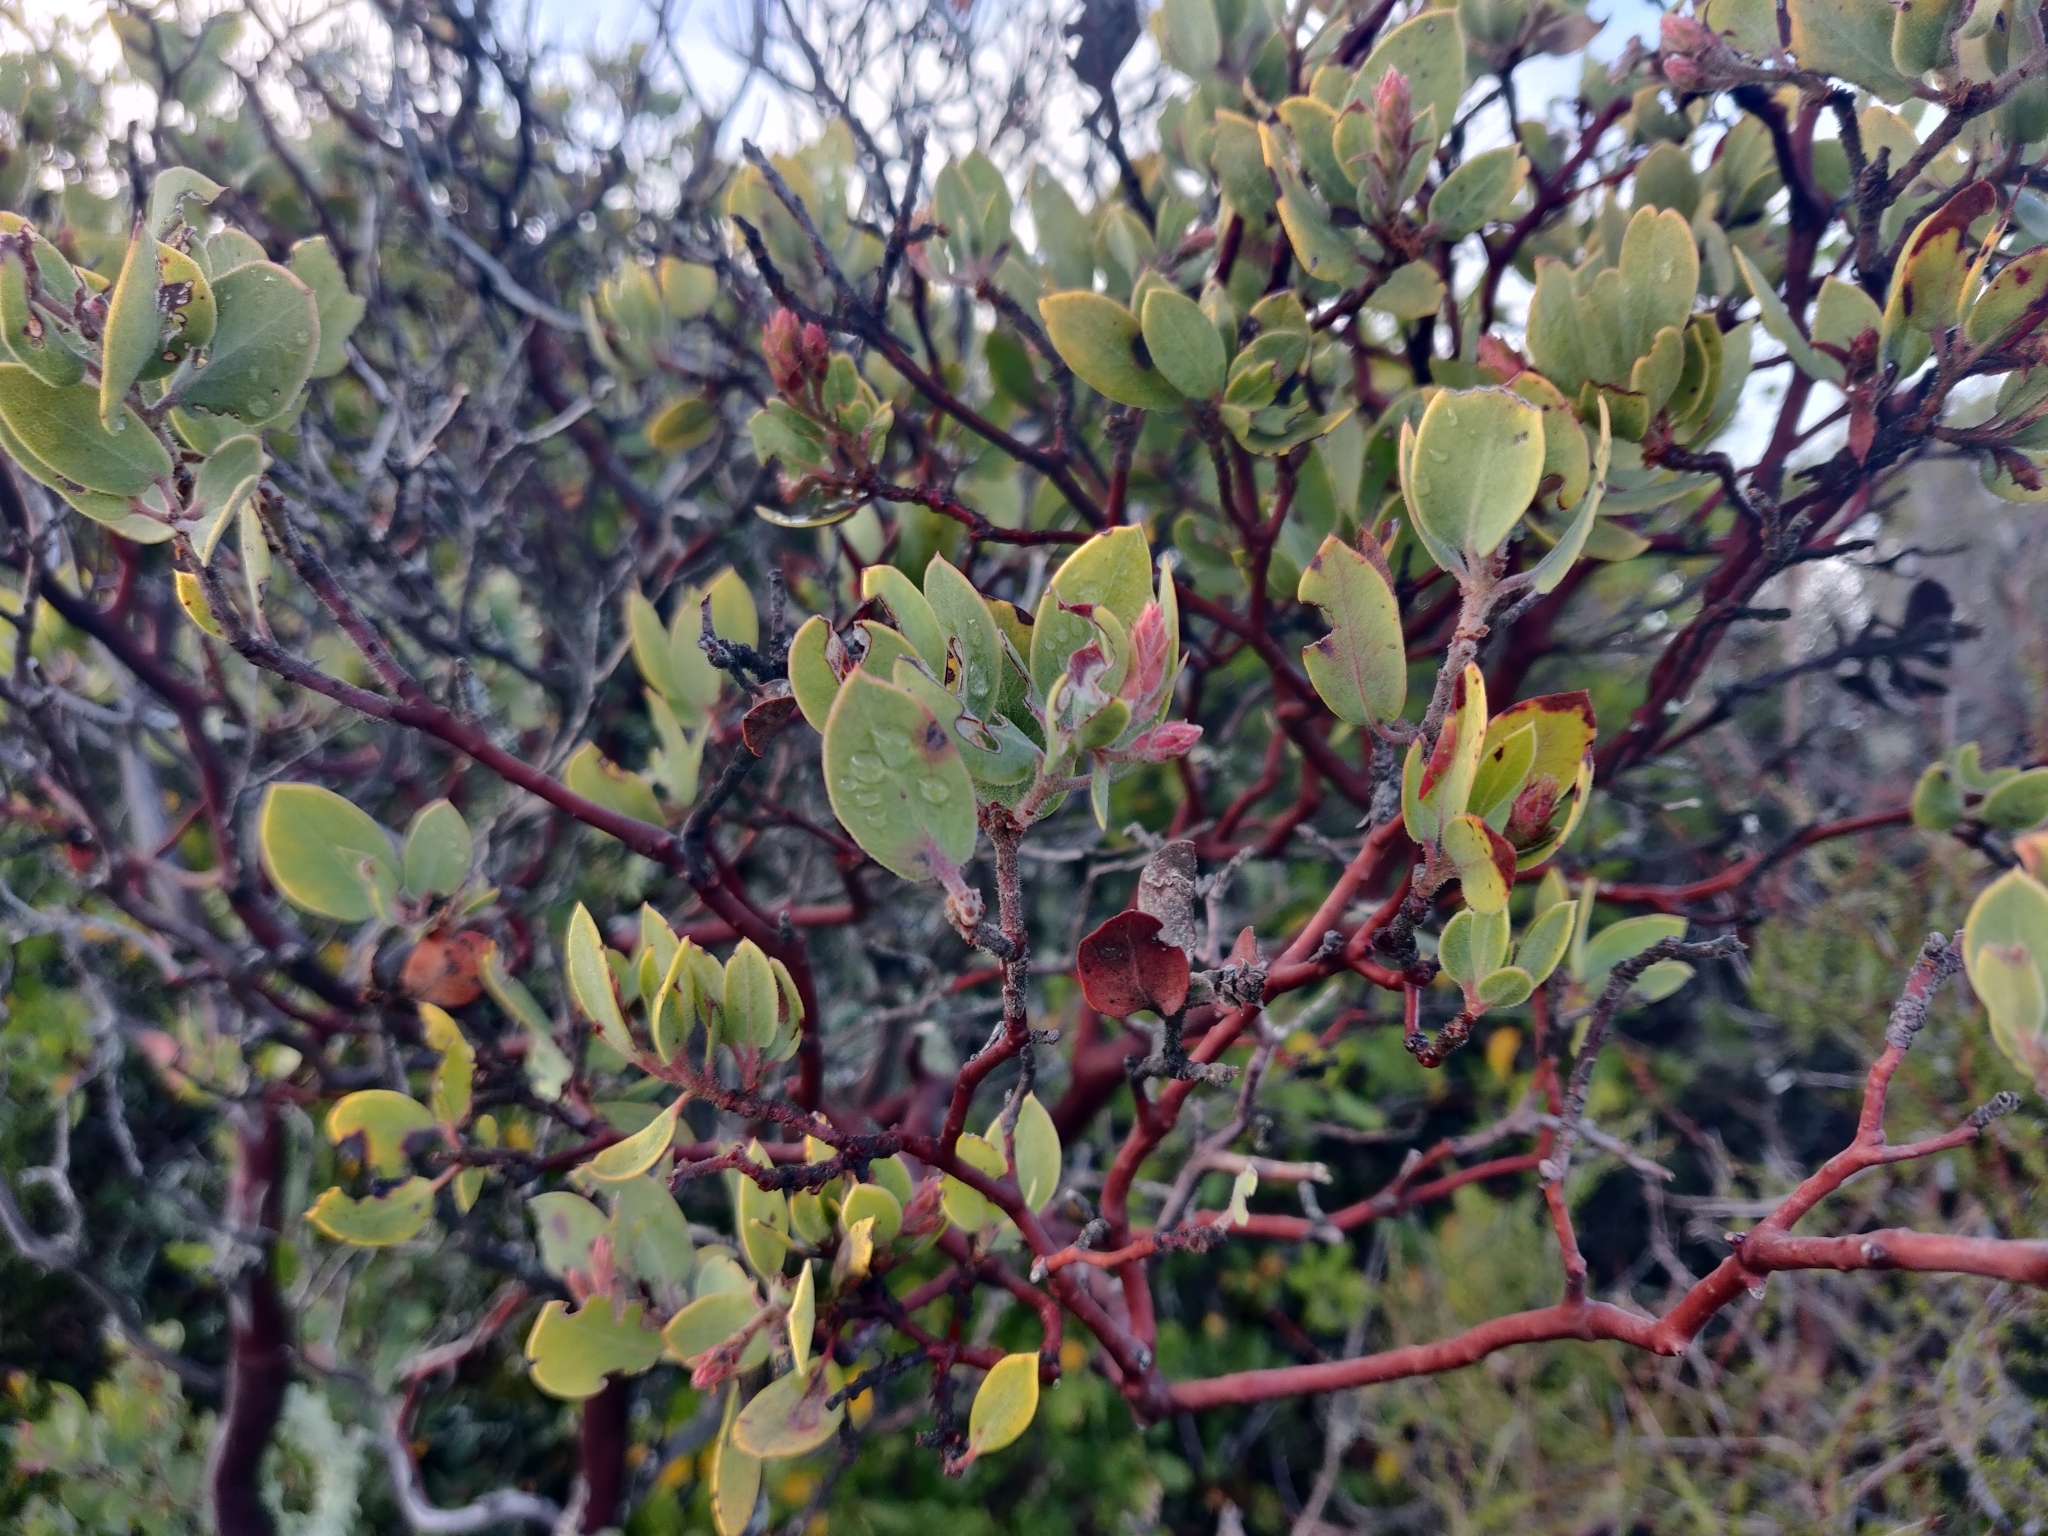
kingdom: Plantae
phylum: Tracheophyta
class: Magnoliopsida
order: Ericales
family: Ericaceae
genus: Arctostaphylos
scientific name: Arctostaphylos glandulosa
